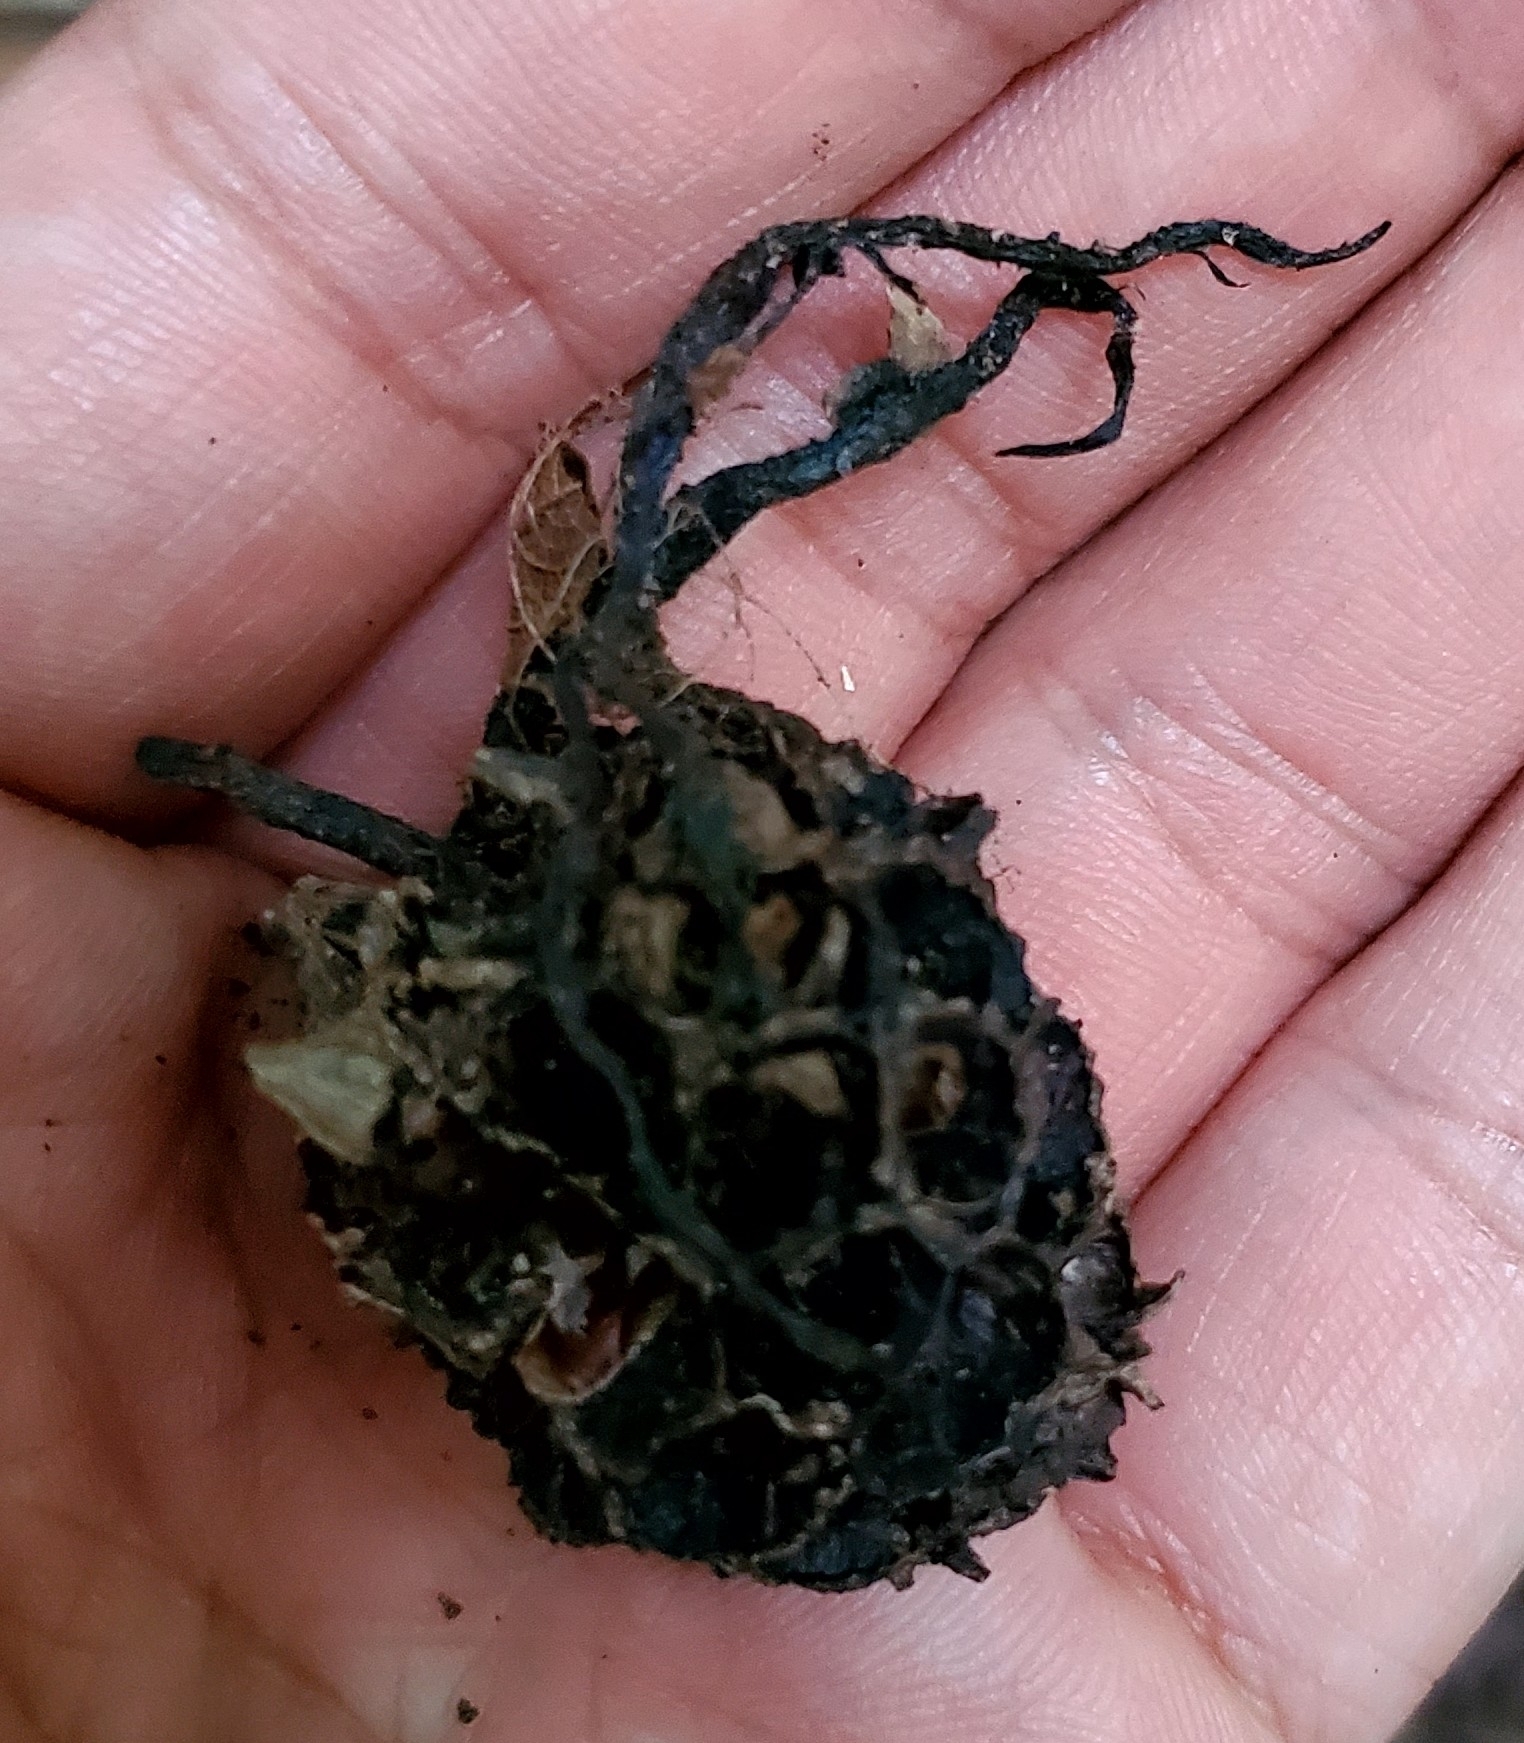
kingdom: Fungi
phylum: Ascomycota
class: Sordariomycetes
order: Xylariales
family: Xylariaceae
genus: Xylaria
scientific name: Xylaria liquidambaris
